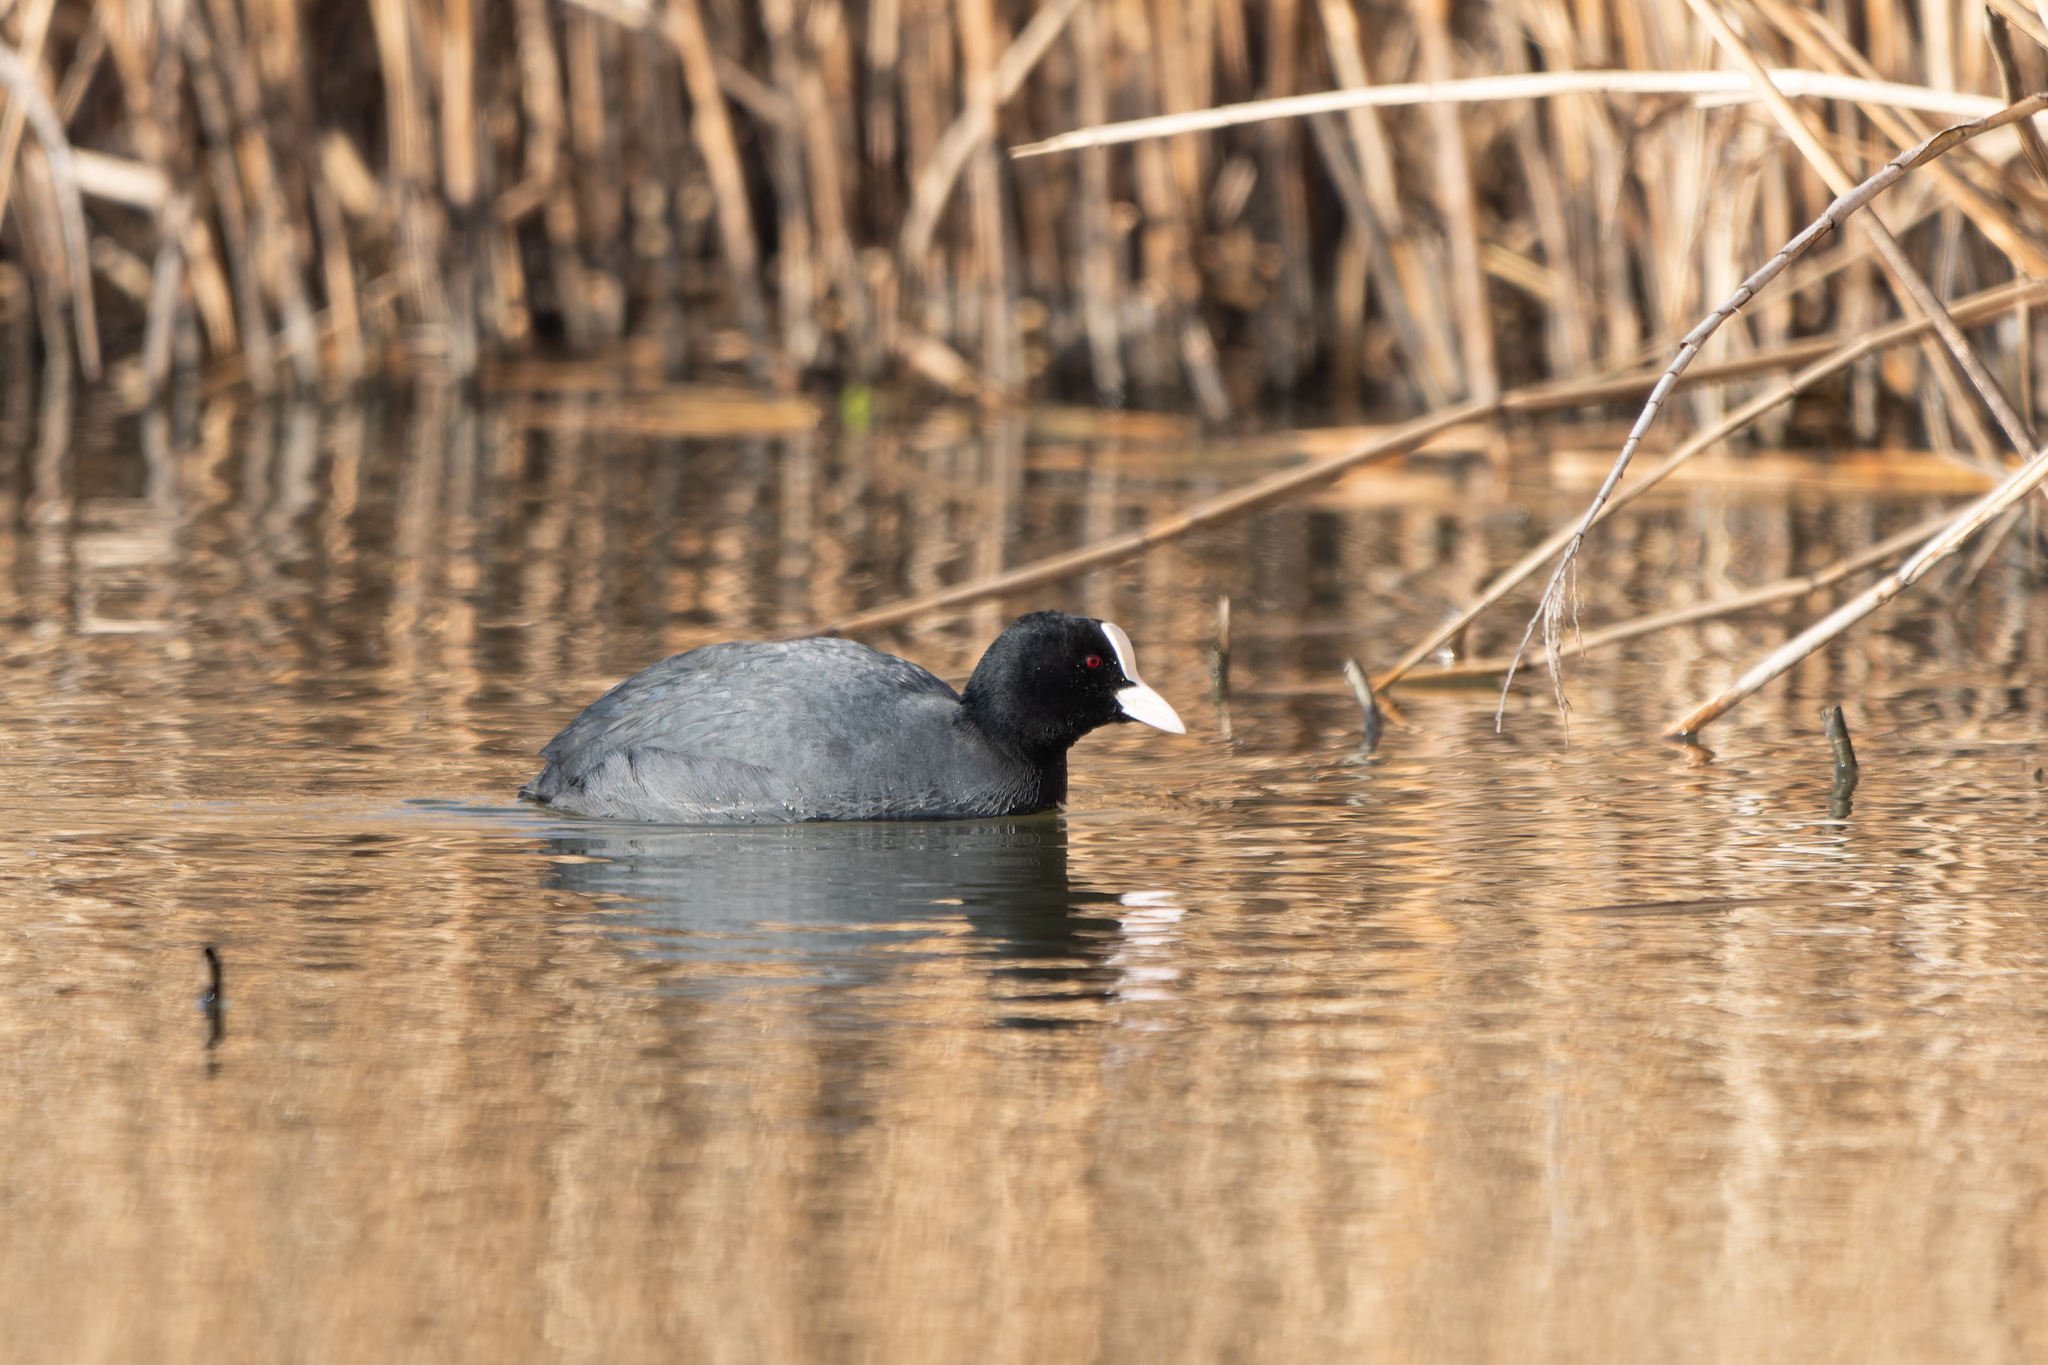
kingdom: Animalia
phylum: Chordata
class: Aves
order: Gruiformes
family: Rallidae
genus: Fulica
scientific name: Fulica atra
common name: Eurasian coot
